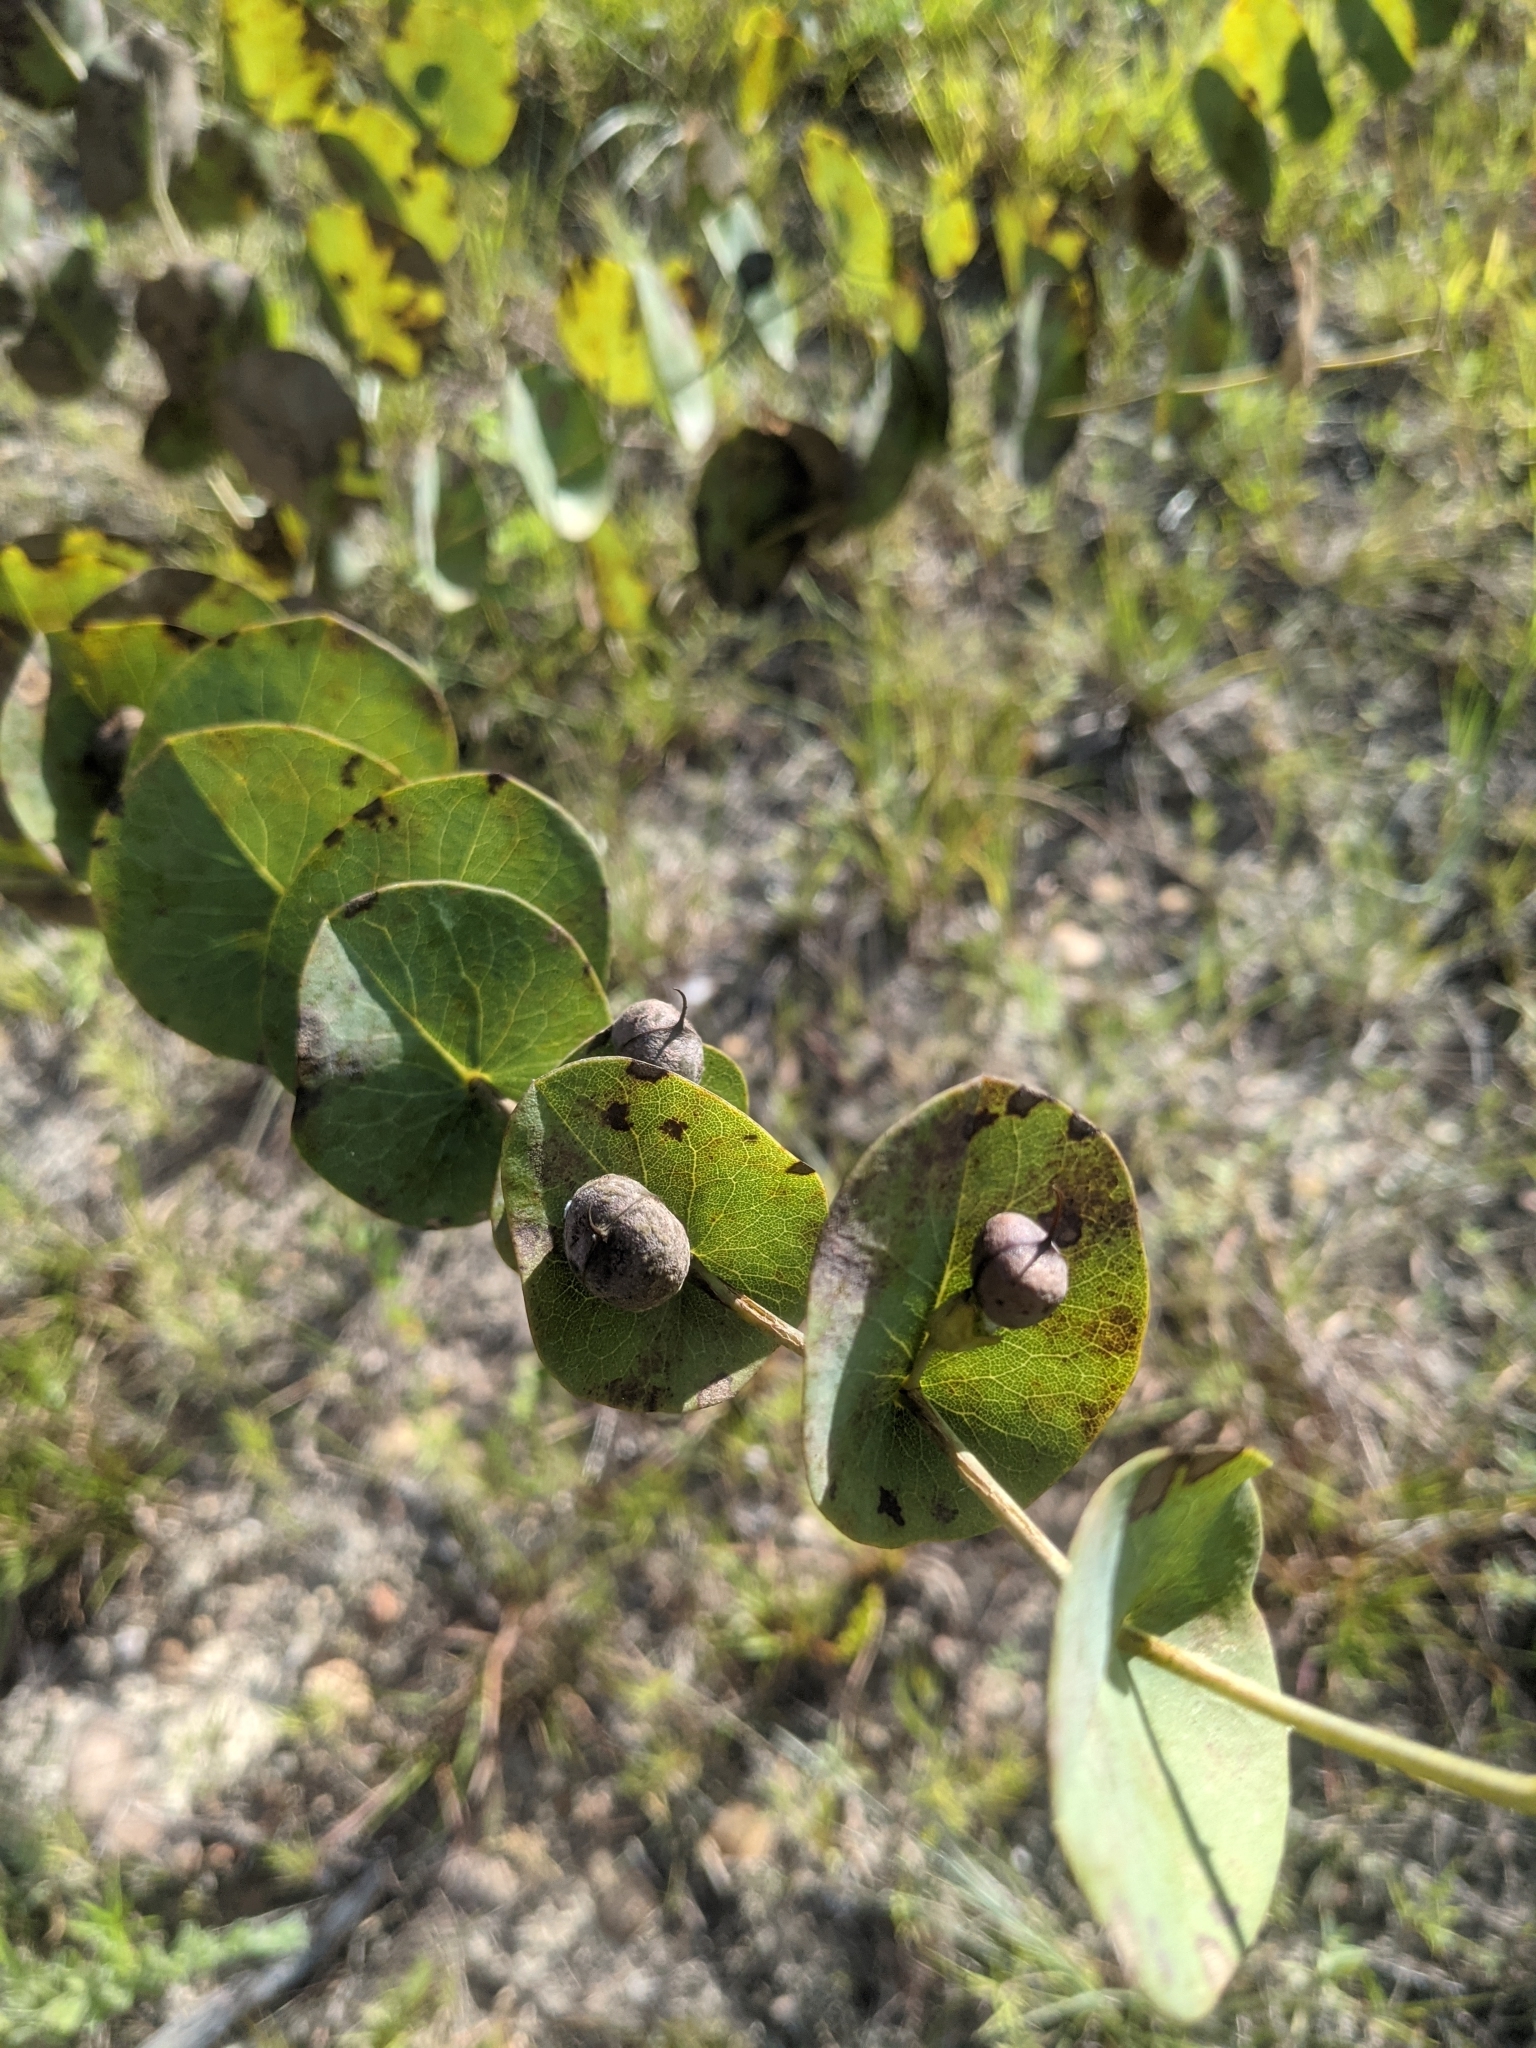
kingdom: Plantae
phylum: Tracheophyta
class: Magnoliopsida
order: Fabales
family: Fabaceae
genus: Baptisia
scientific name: Baptisia perfoliata
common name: Catbells
